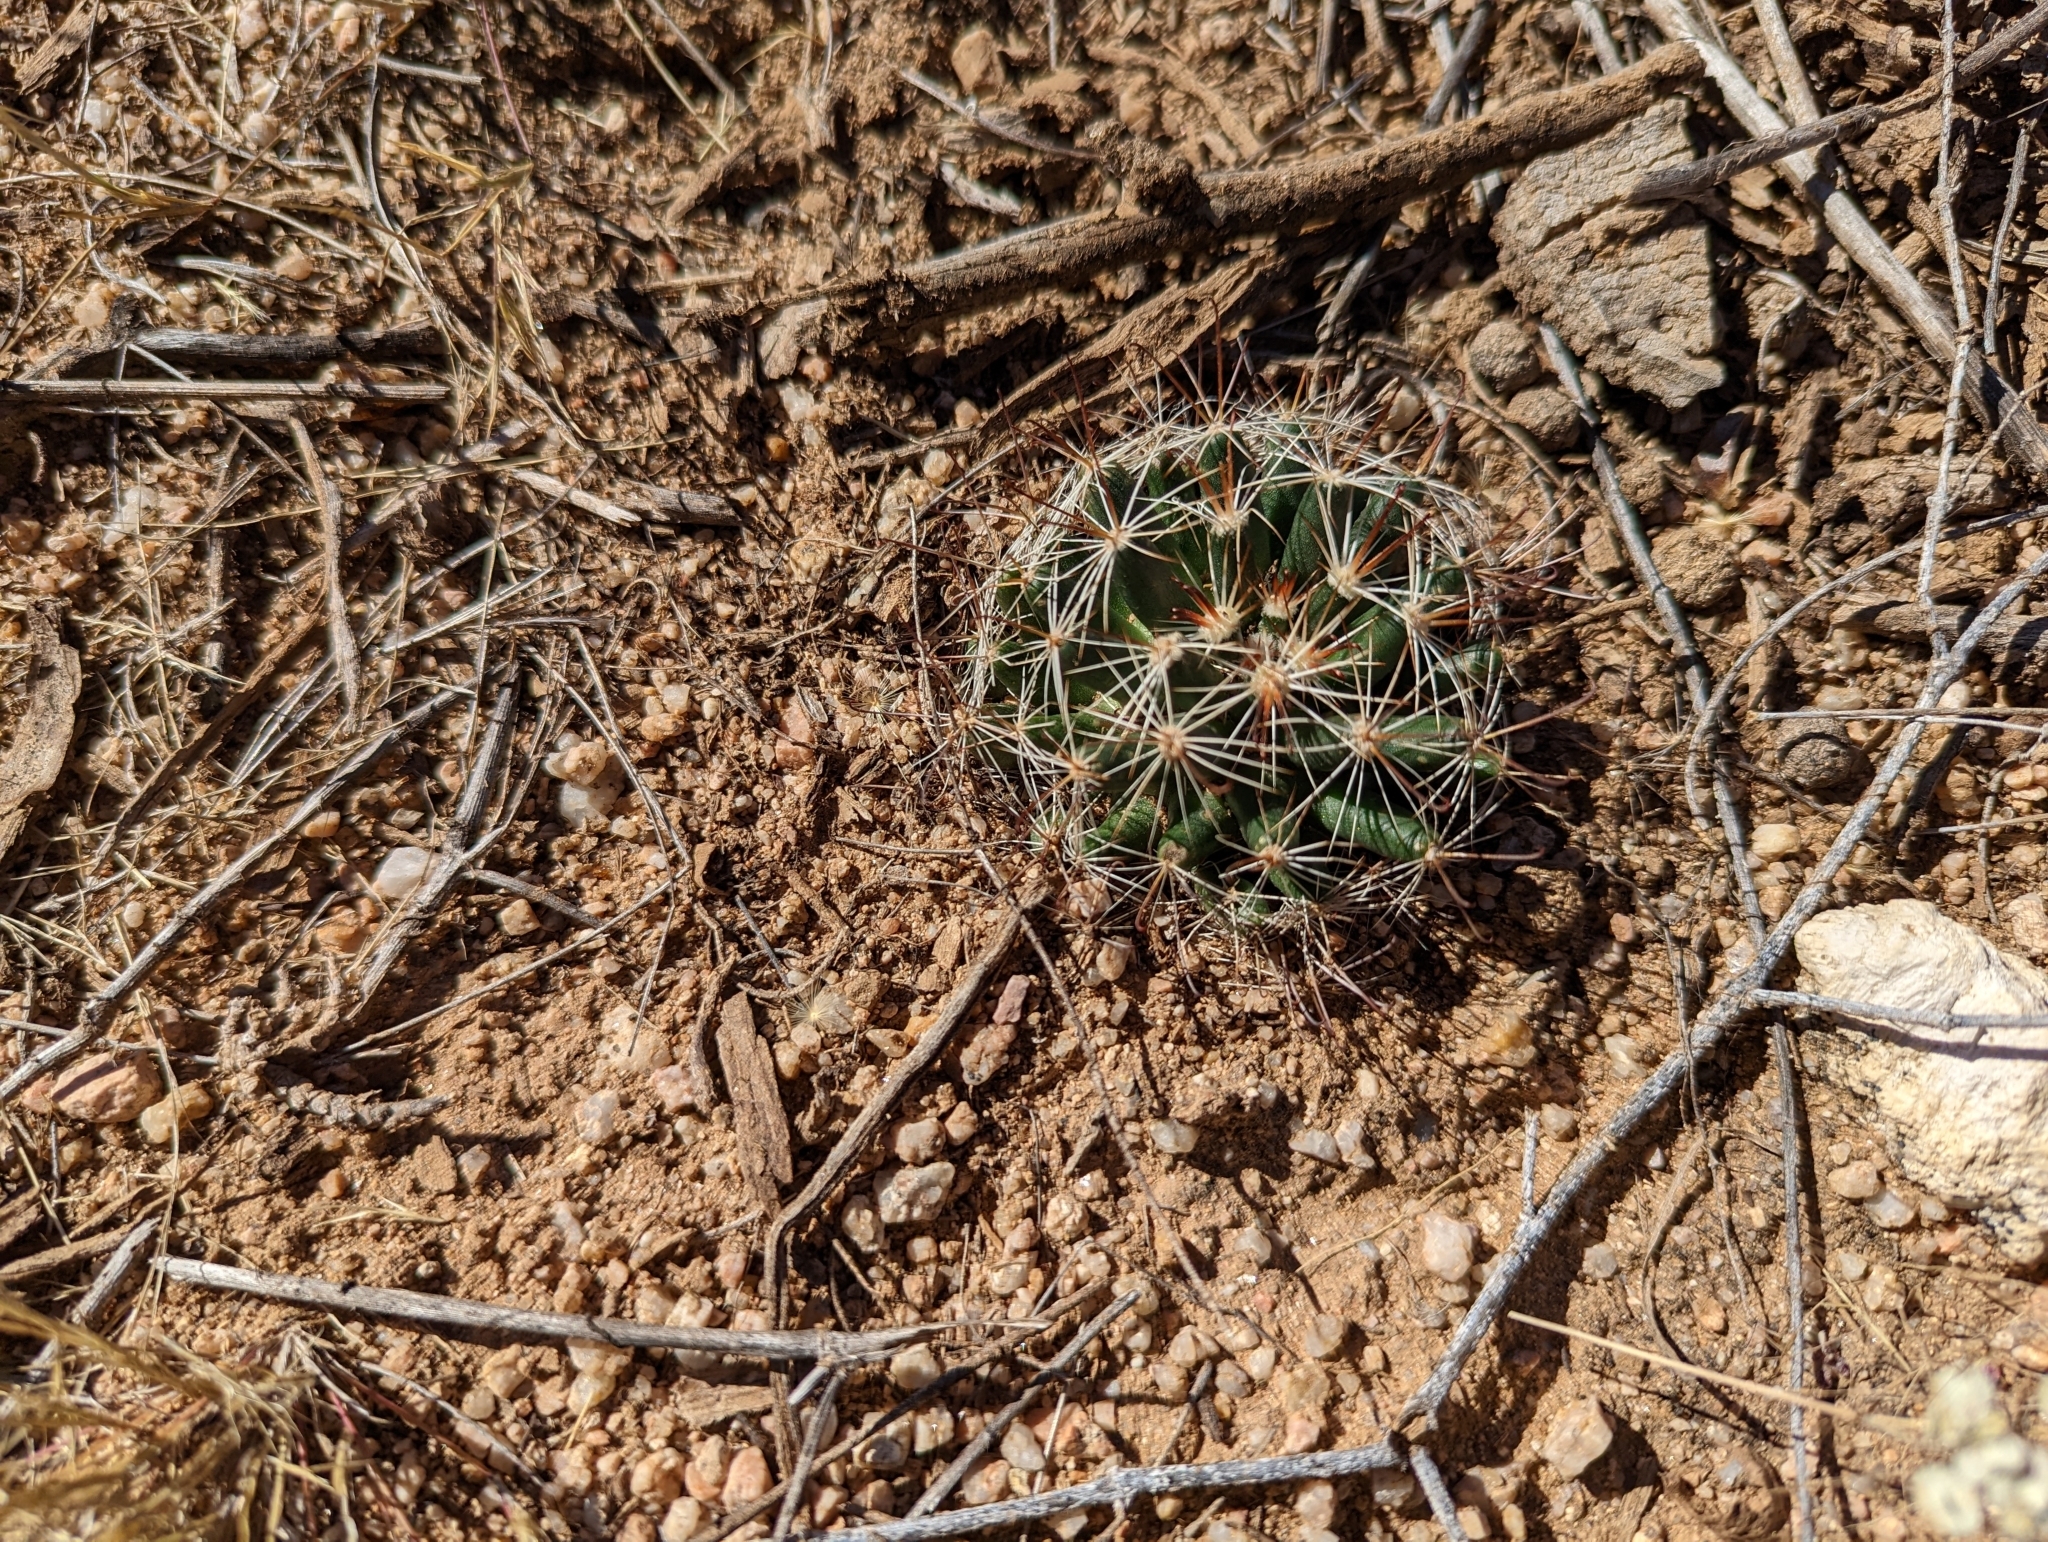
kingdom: Plantae
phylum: Tracheophyta
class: Magnoliopsida
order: Caryophyllales
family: Cactaceae
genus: Cochemiea
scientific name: Cochemiea wrightii
